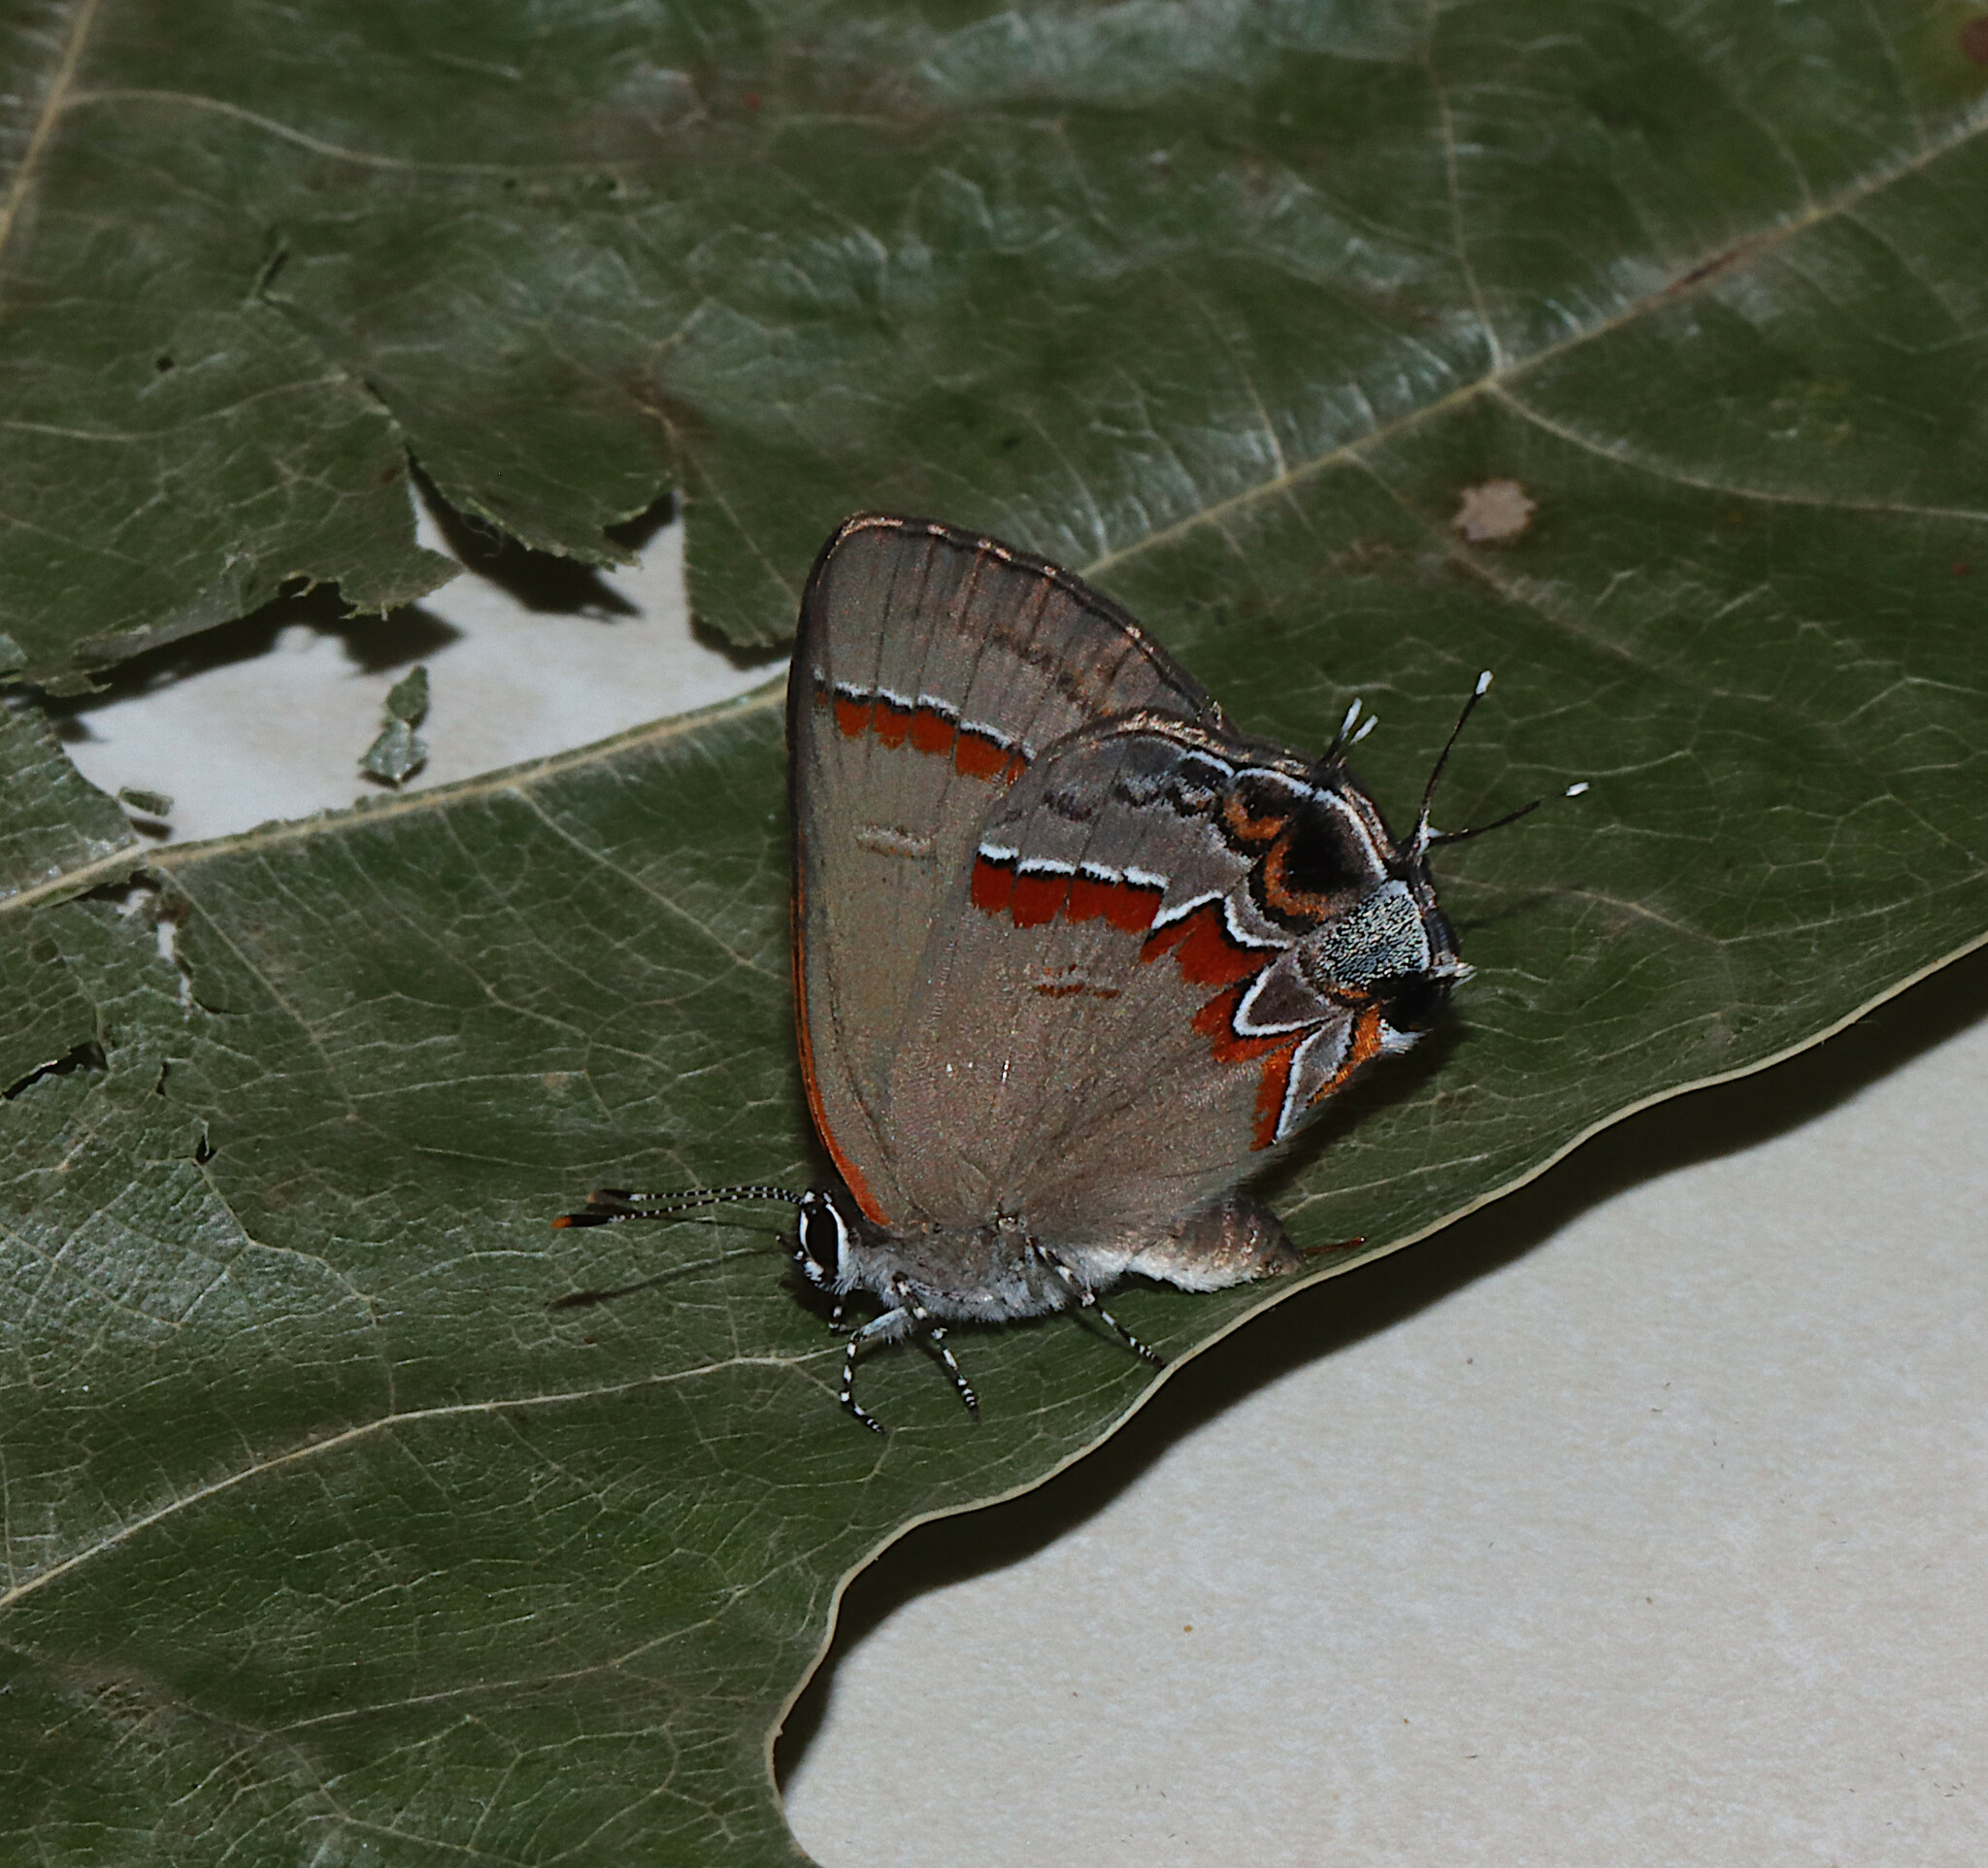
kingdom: Animalia
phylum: Arthropoda
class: Insecta
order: Lepidoptera
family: Lycaenidae
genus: Calycopis
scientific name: Calycopis cecrops
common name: Red-banded hairstreak
